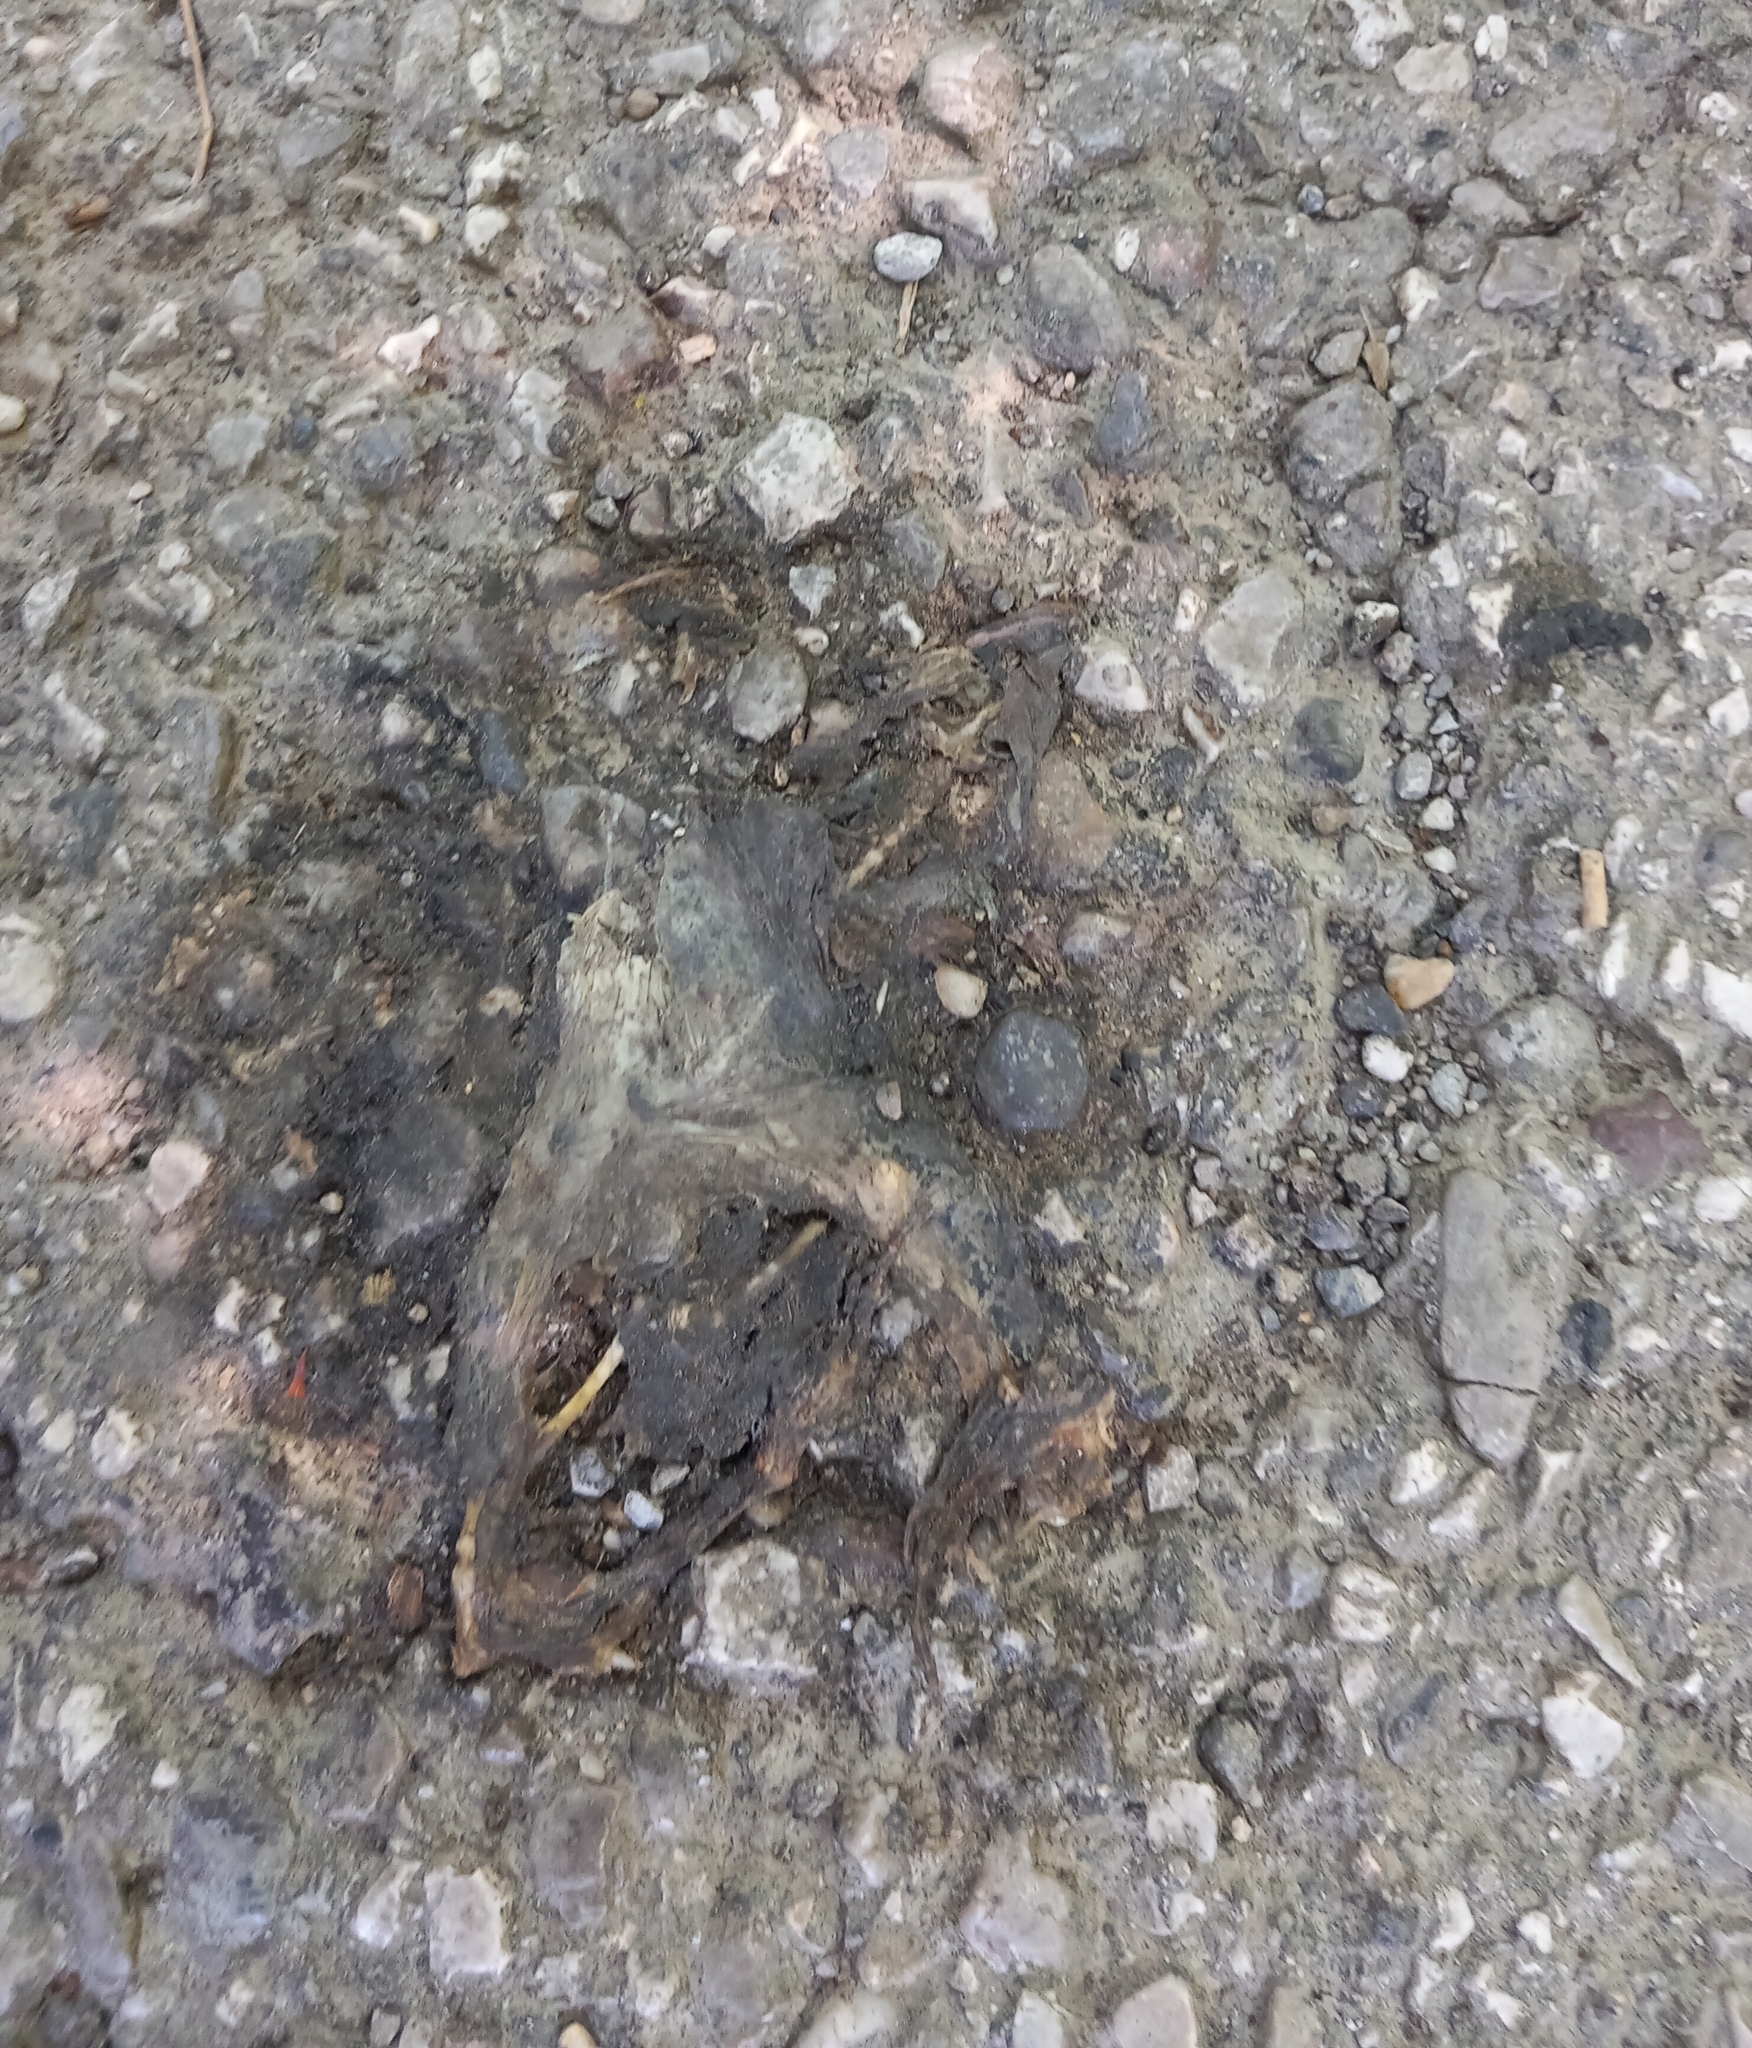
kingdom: Animalia
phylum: Chordata
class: Amphibia
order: Anura
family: Bufonidae
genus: Bufo
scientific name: Bufo bufo
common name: Common toad
